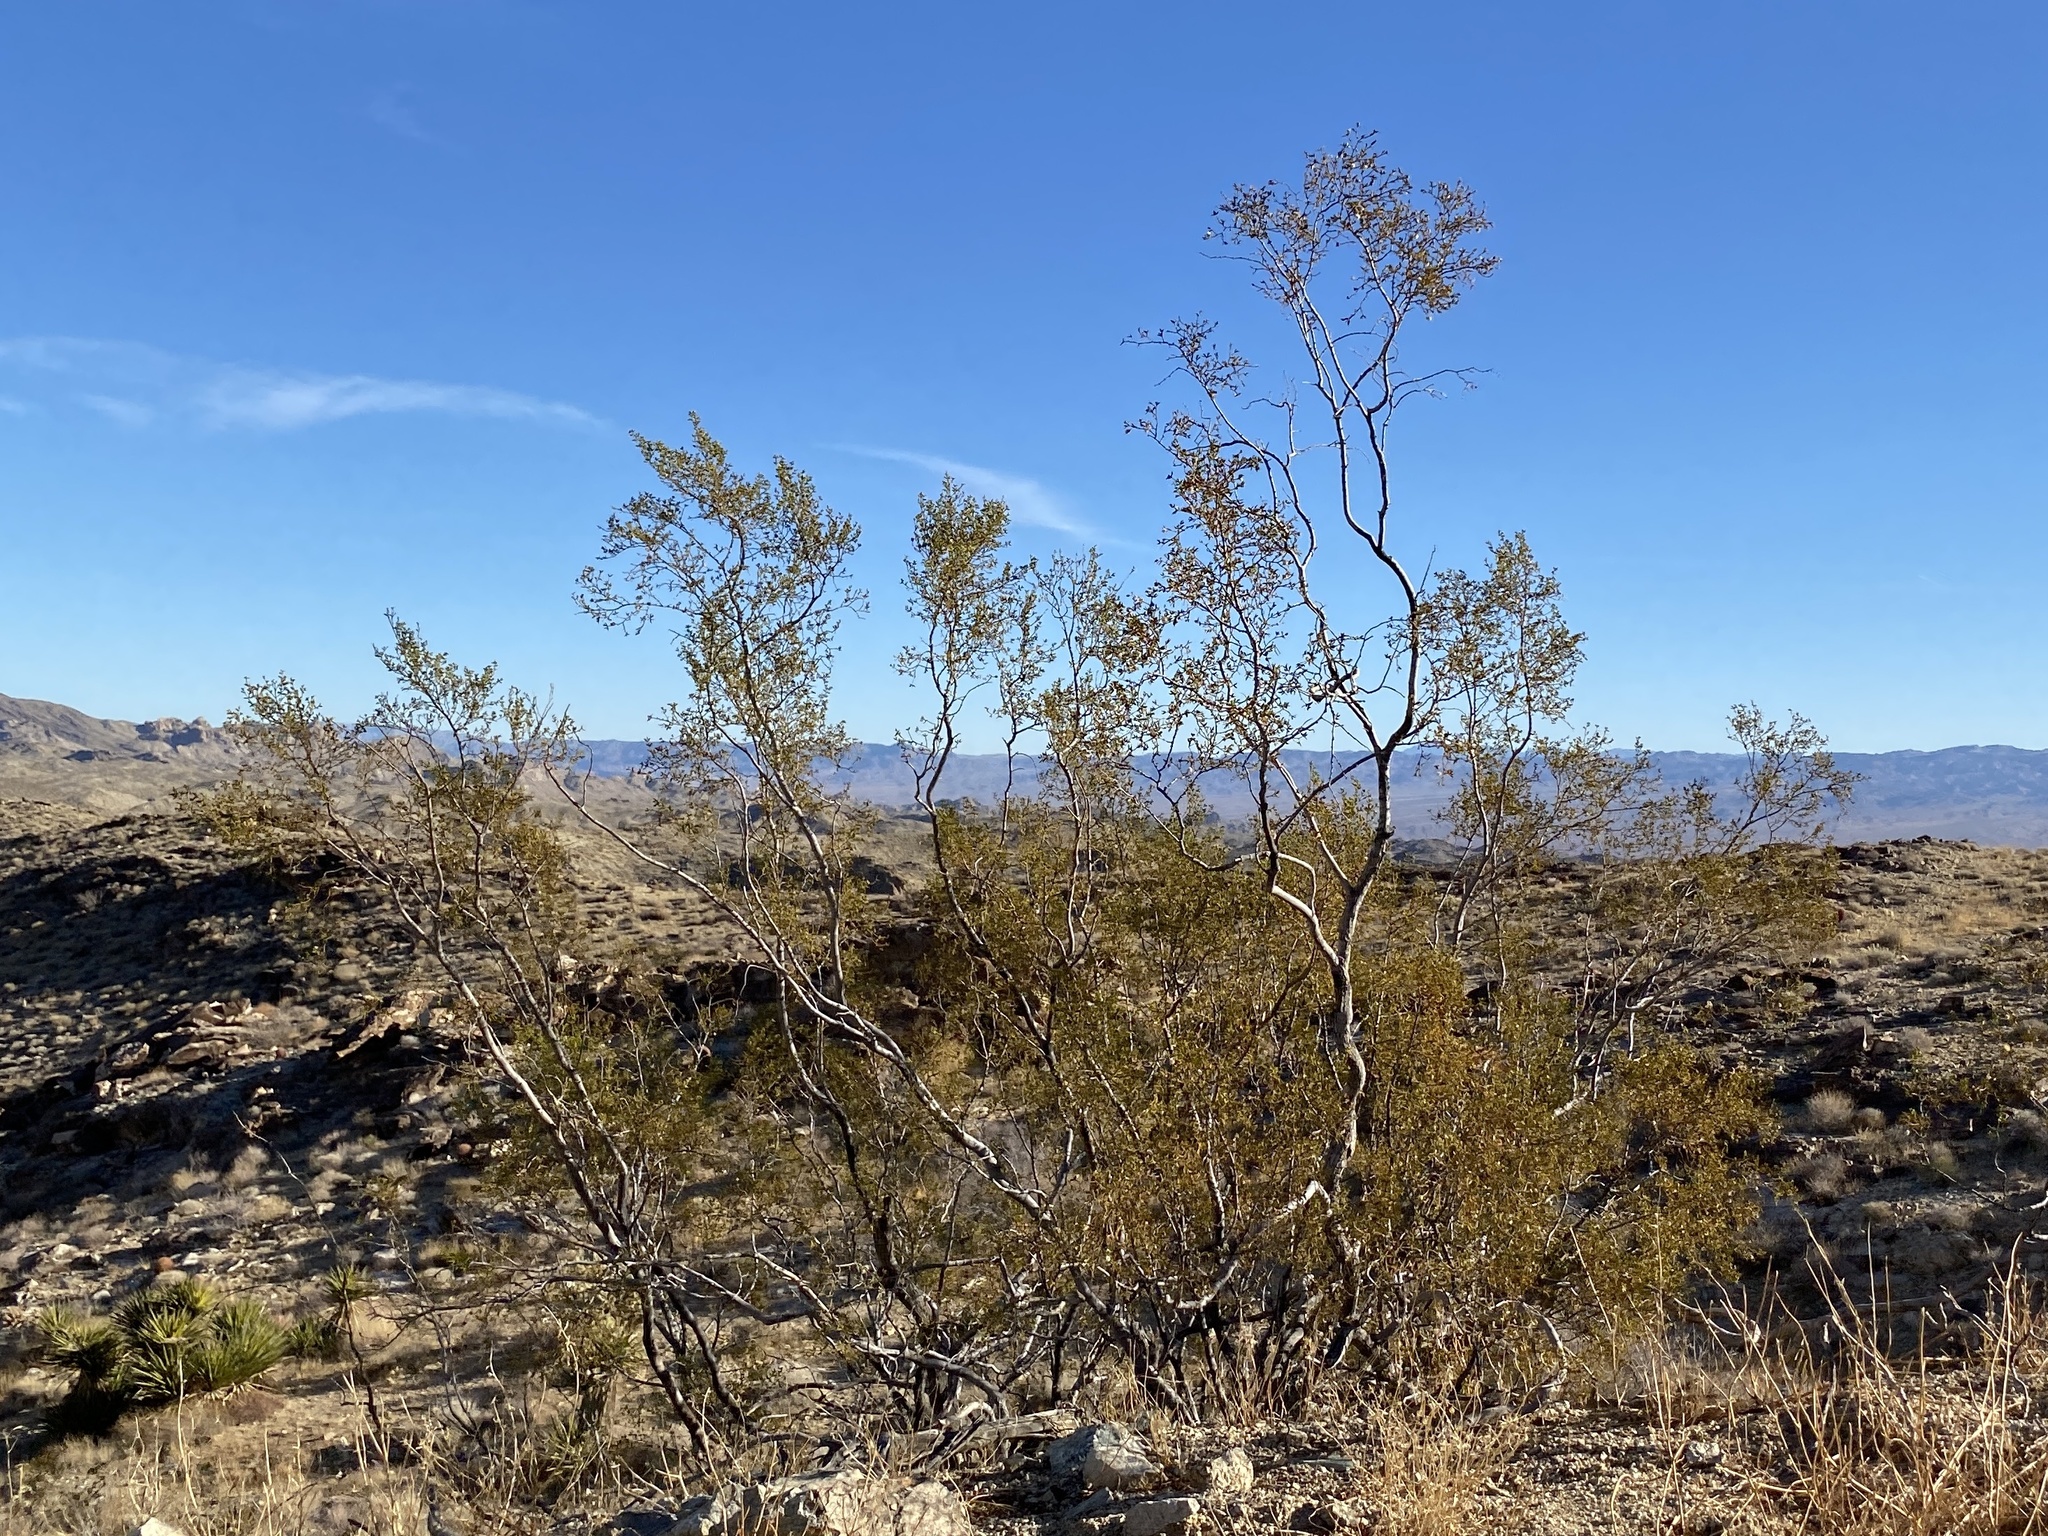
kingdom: Plantae
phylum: Tracheophyta
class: Magnoliopsida
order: Zygophyllales
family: Zygophyllaceae
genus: Larrea
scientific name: Larrea tridentata
